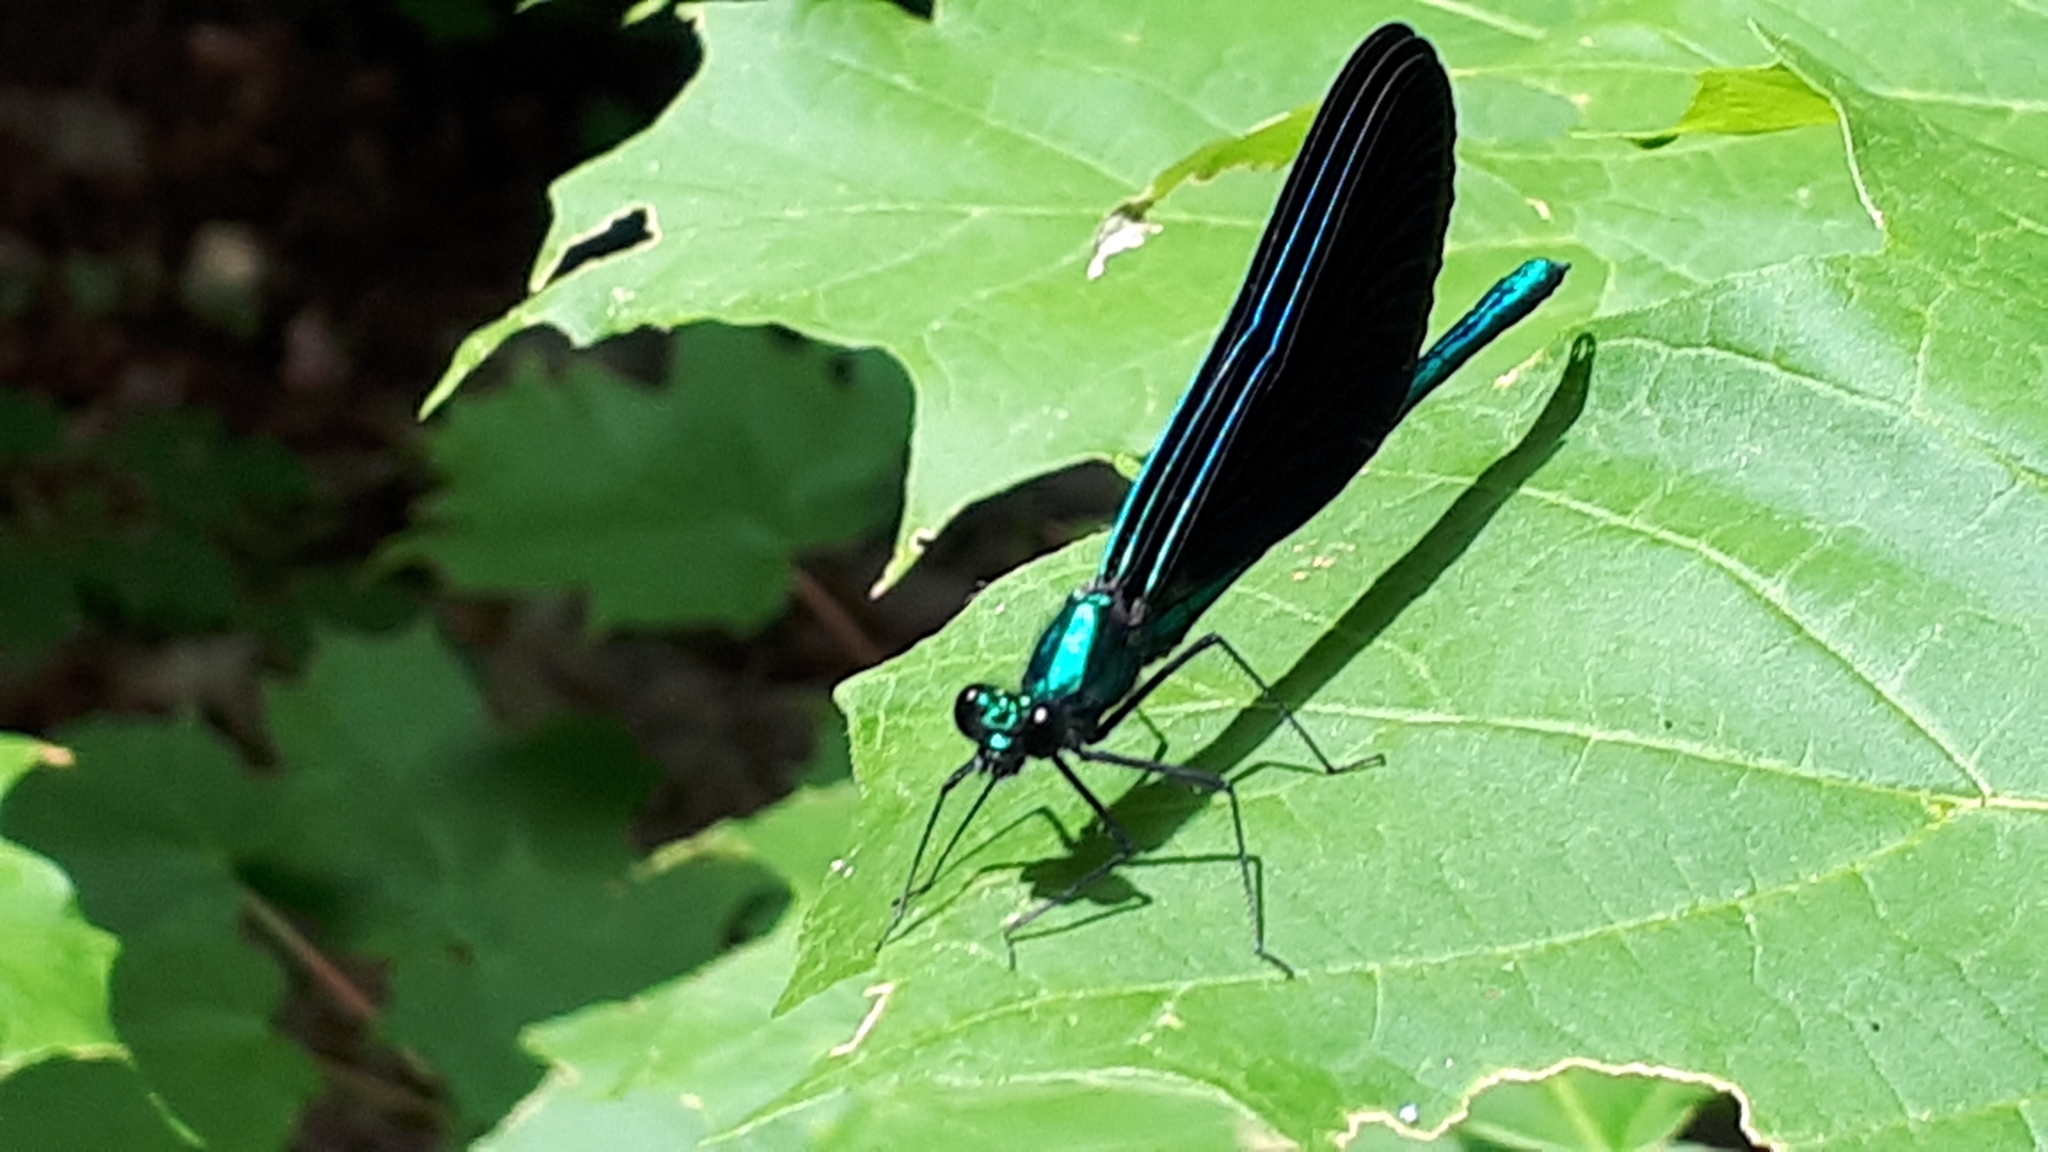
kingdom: Animalia
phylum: Arthropoda
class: Insecta
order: Odonata
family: Calopterygidae
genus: Calopteryx
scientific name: Calopteryx maculata
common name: Ebony jewelwing
